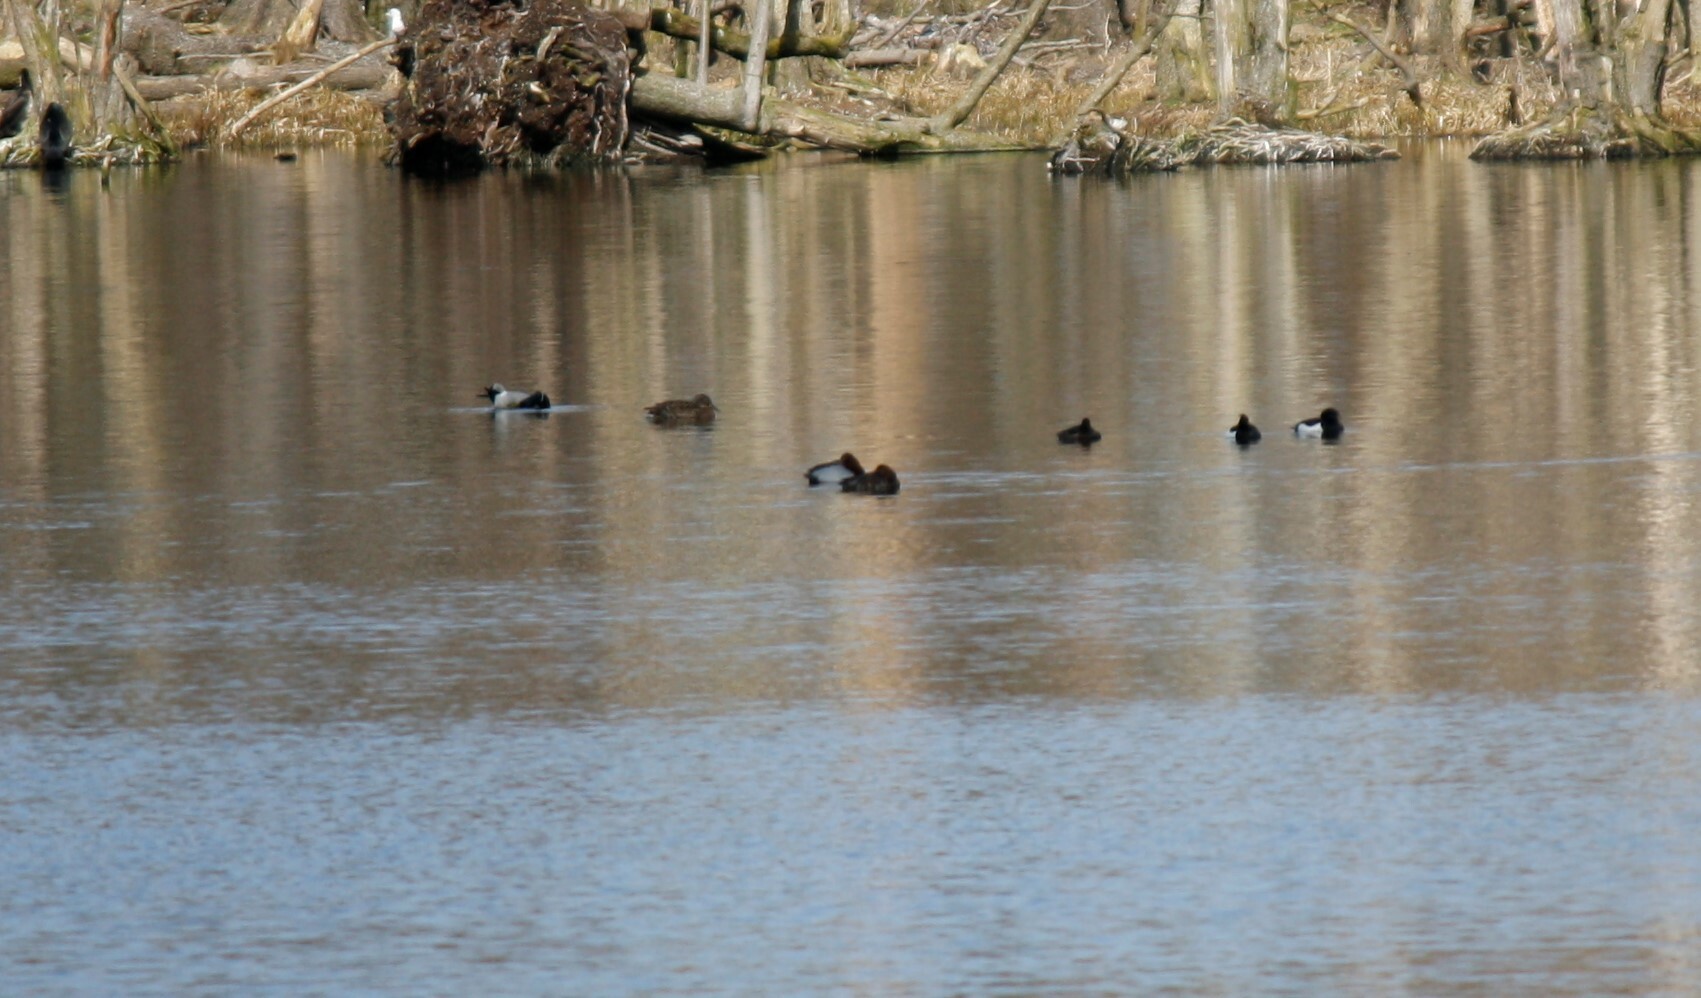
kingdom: Animalia
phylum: Chordata
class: Aves
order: Anseriformes
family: Anatidae
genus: Aythya
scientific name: Aythya fuligula
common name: Tufted duck
